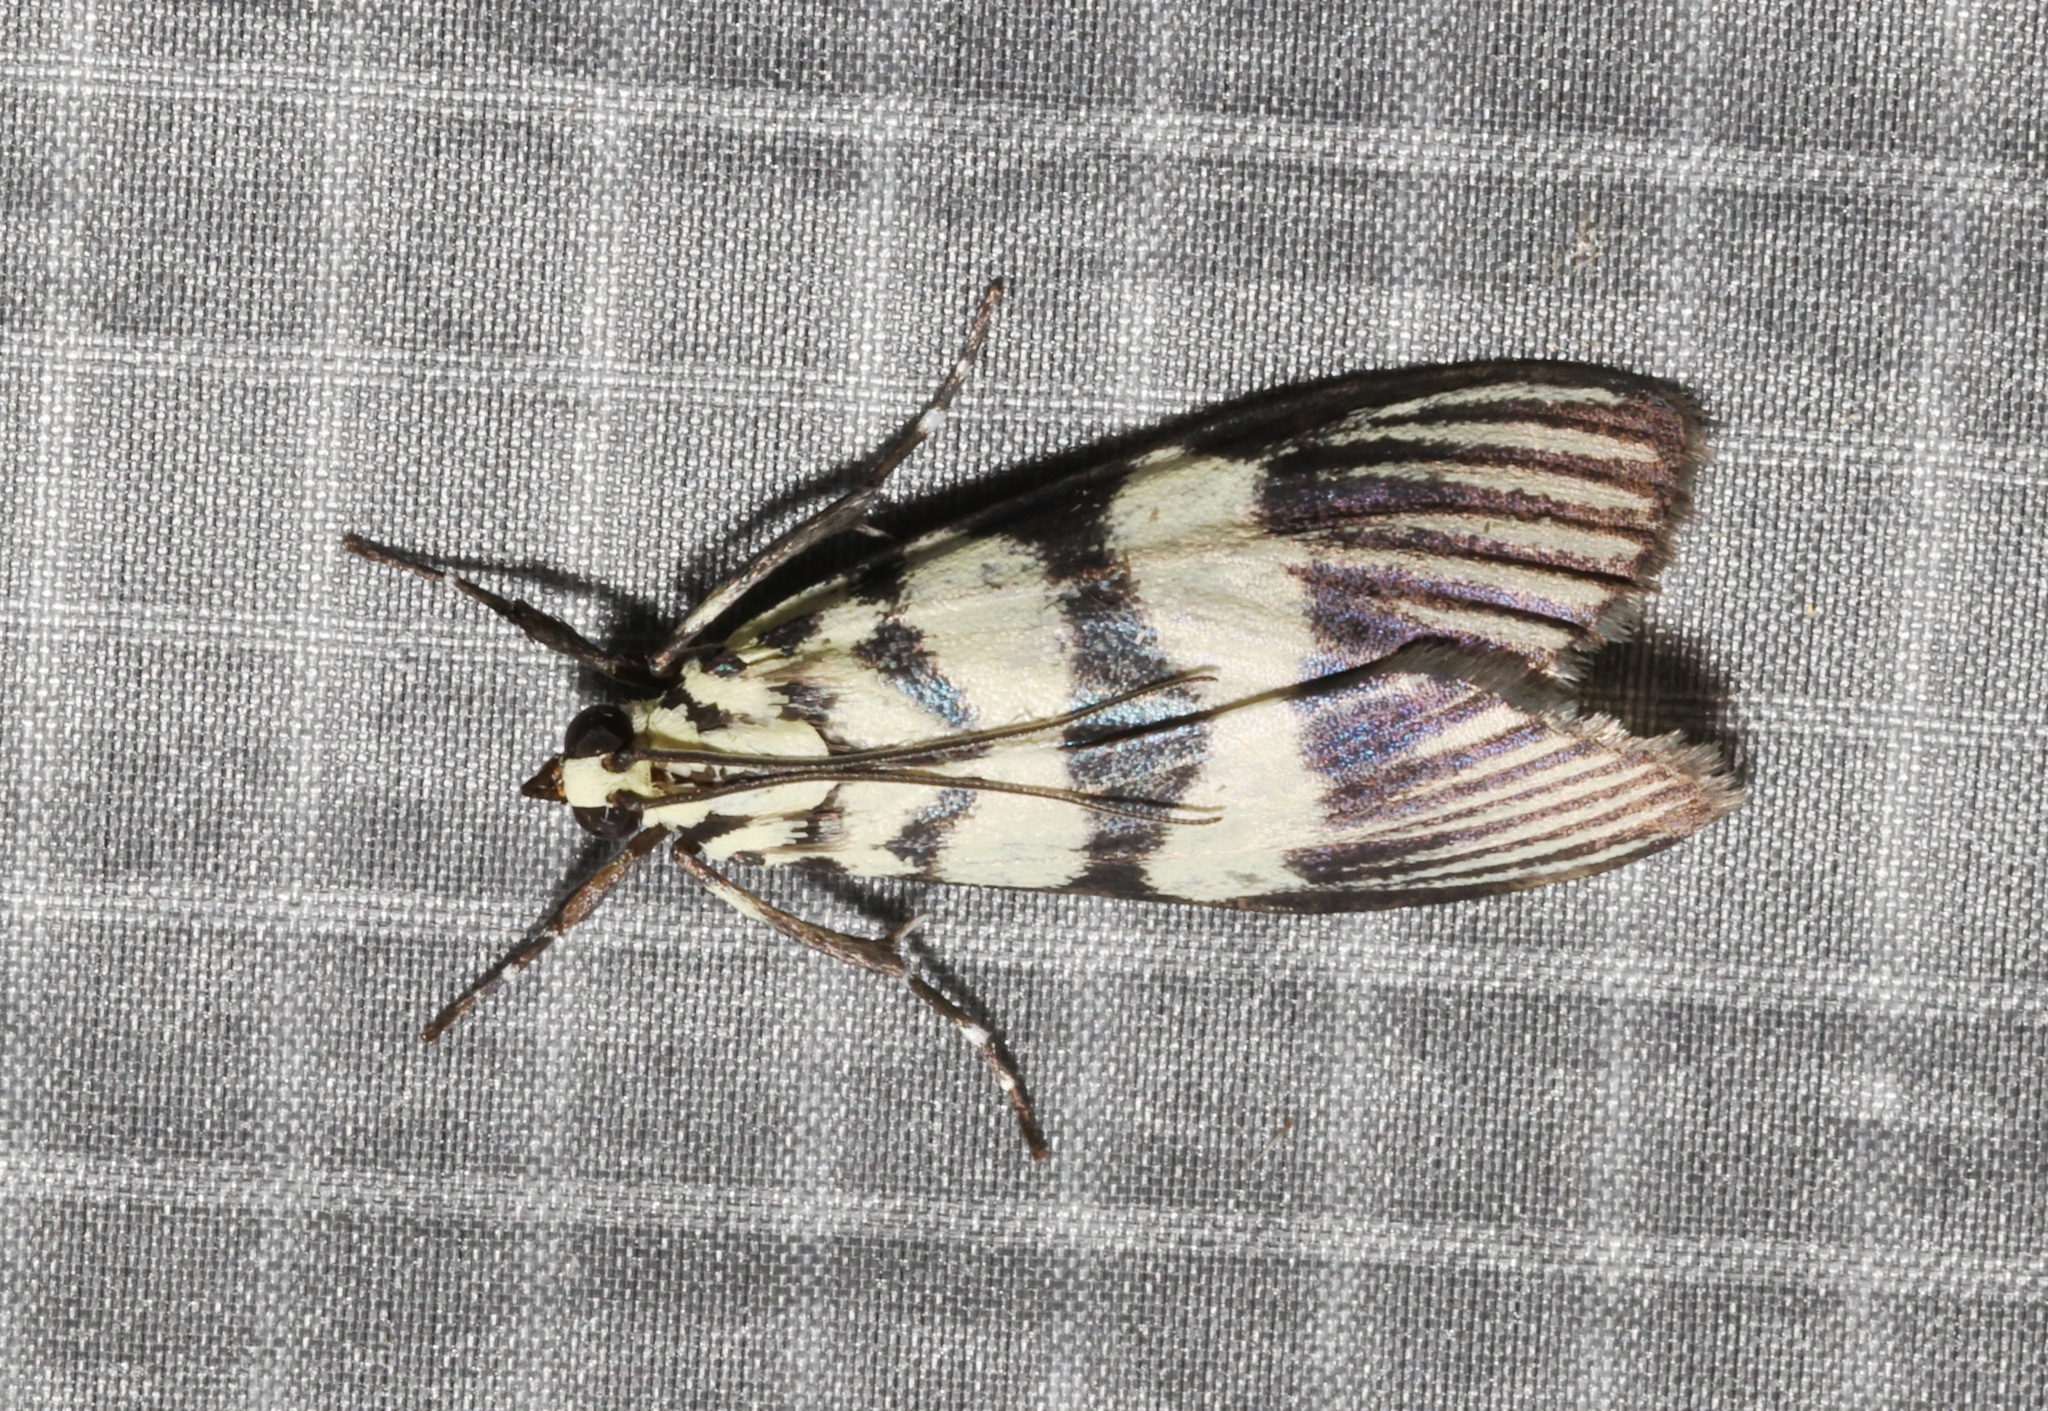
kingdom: Animalia
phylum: Arthropoda
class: Insecta
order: Lepidoptera
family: Crambidae
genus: Heortia
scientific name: Heortia vitessoides
